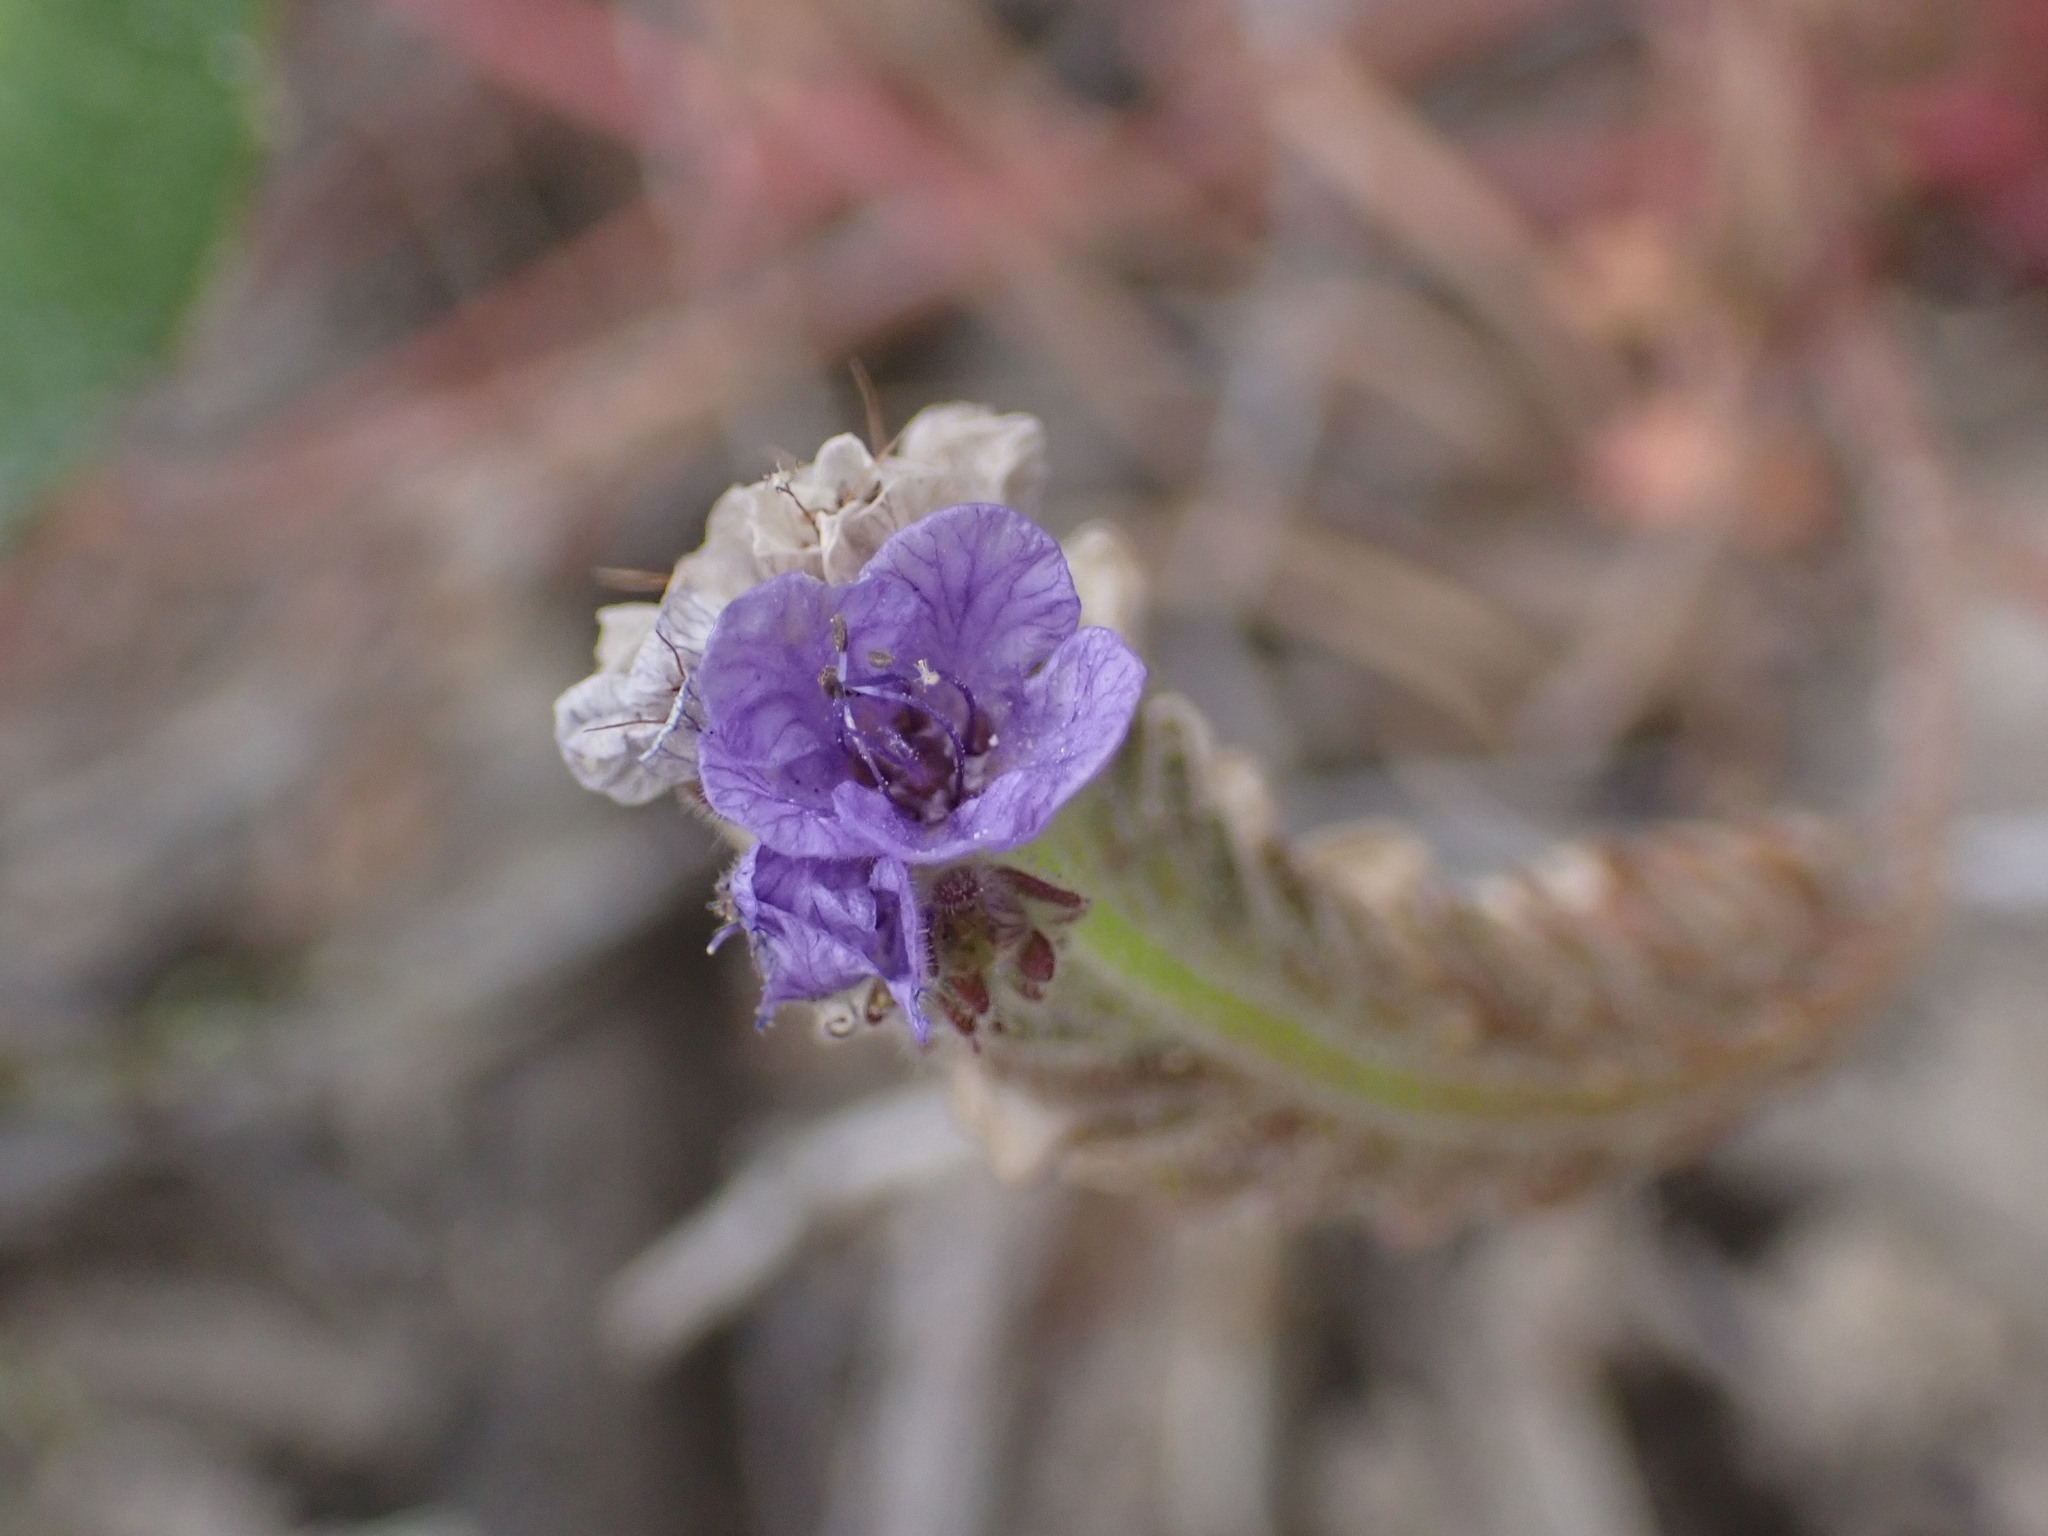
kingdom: Plantae
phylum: Tracheophyta
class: Magnoliopsida
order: Boraginales
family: Hydrophyllaceae
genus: Phacelia
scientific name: Phacelia distans
